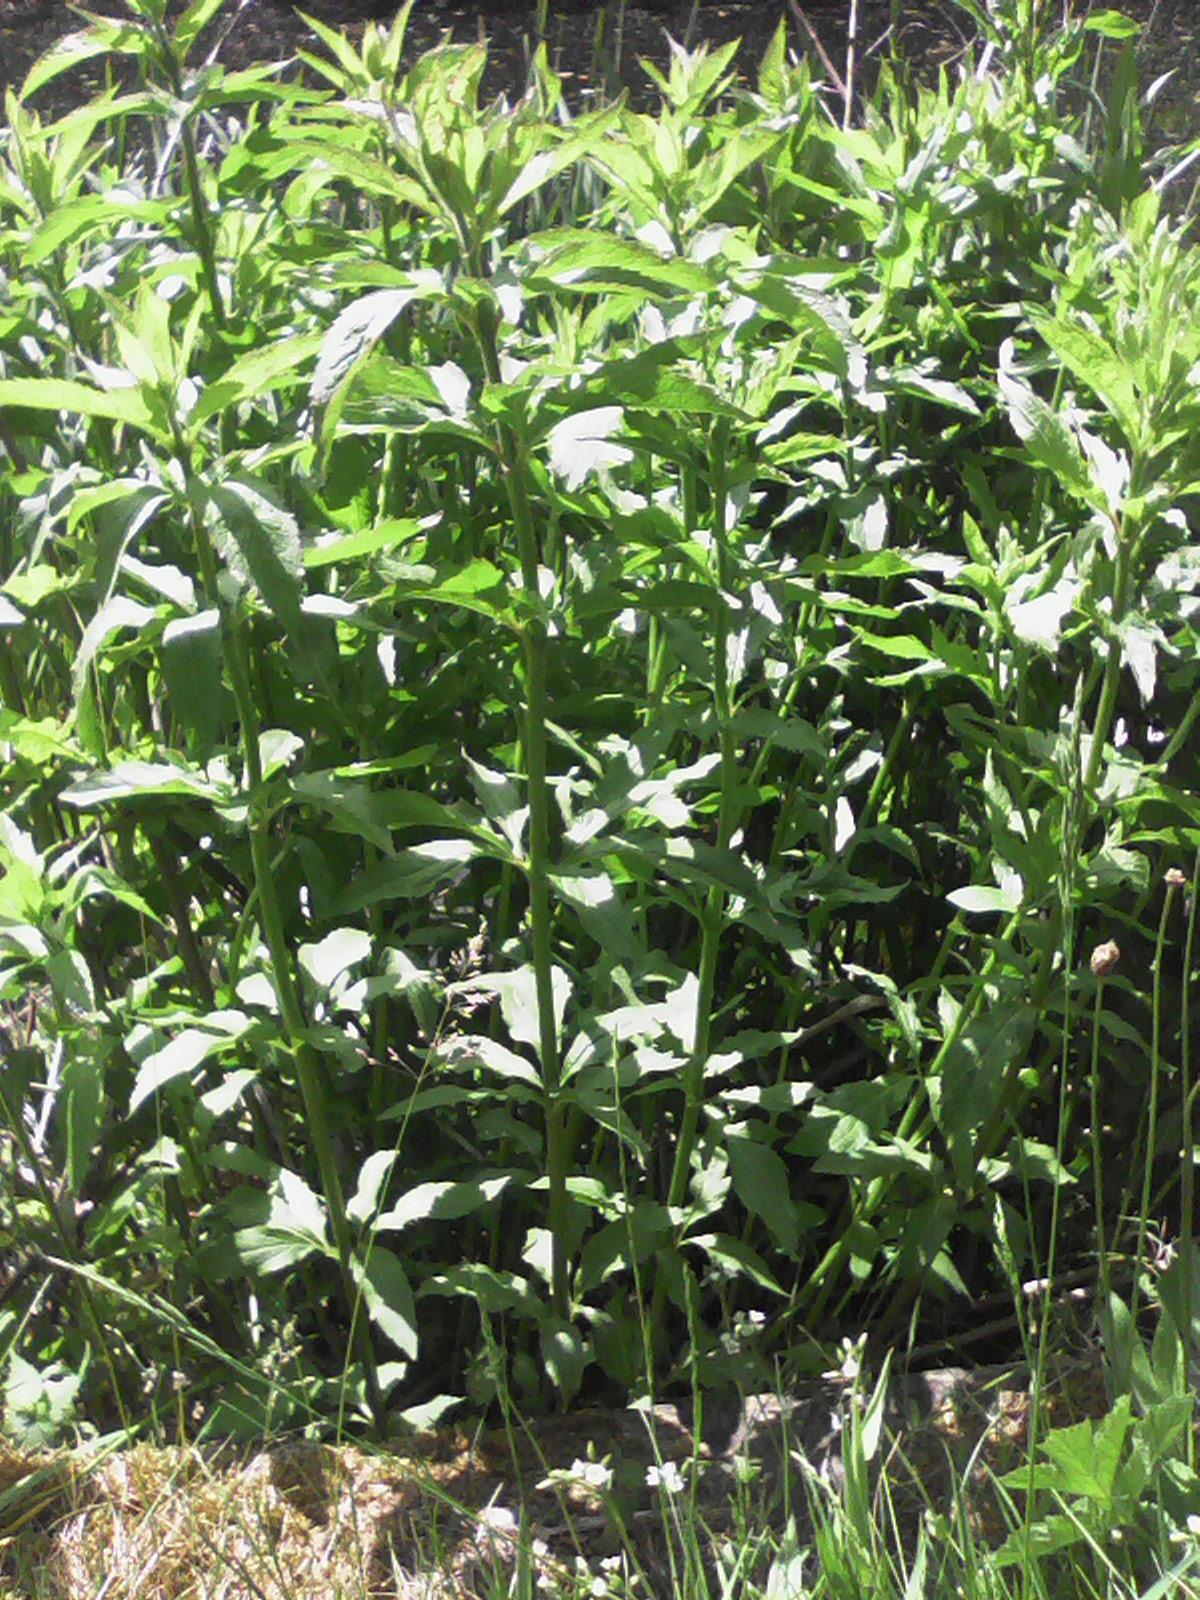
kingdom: Plantae
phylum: Tracheophyta
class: Magnoliopsida
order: Asterales
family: Asteraceae
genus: Eupatorium
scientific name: Eupatorium cannabinum
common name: Hemp-agrimony
